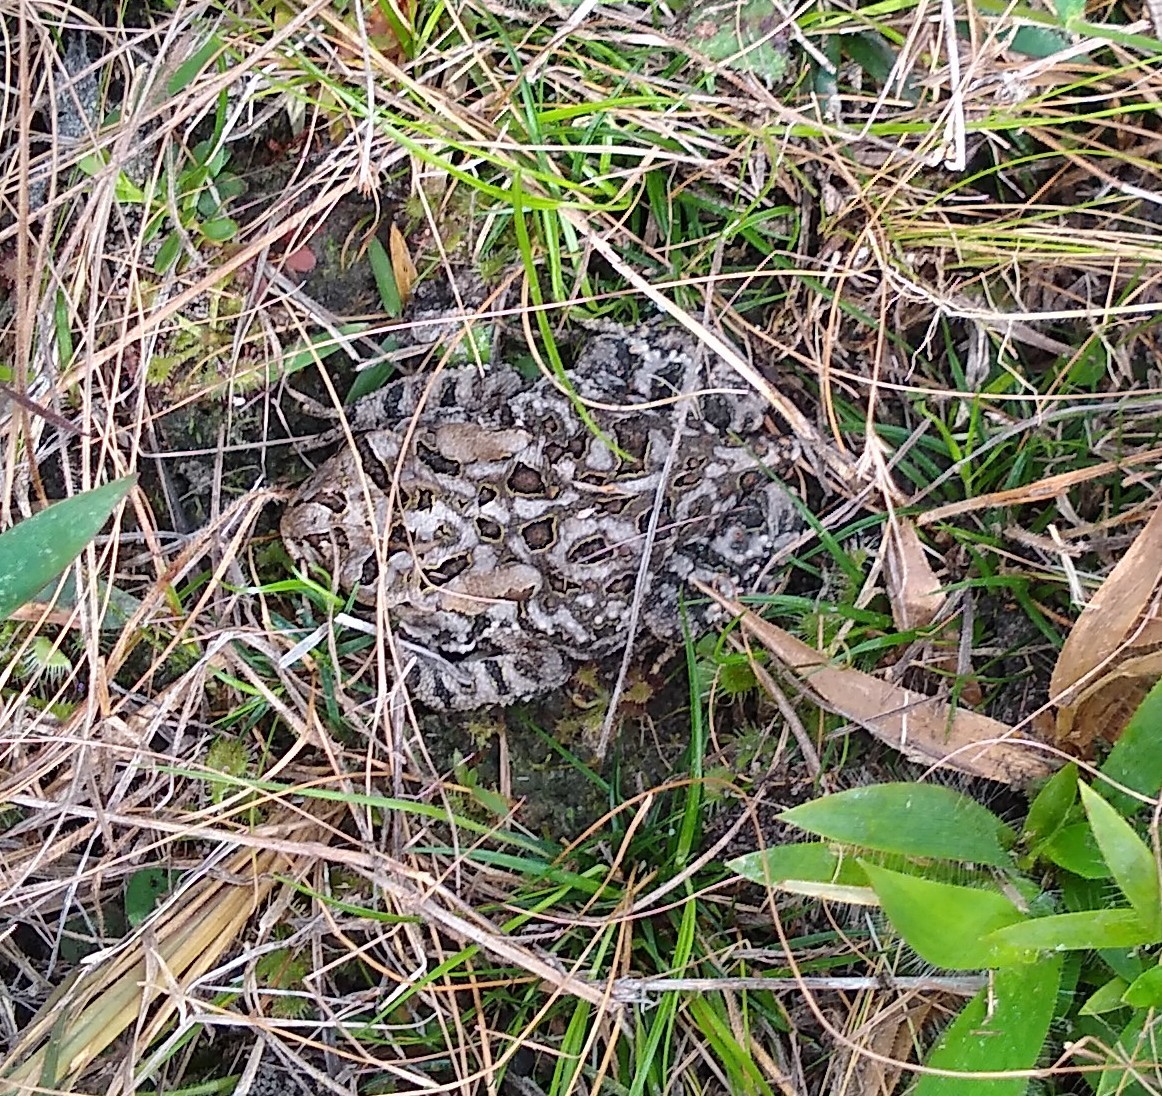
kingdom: Animalia
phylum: Chordata
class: Amphibia
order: Anura
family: Bufonidae
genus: Anaxyrus
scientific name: Anaxyrus terrestris
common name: Southern toad
